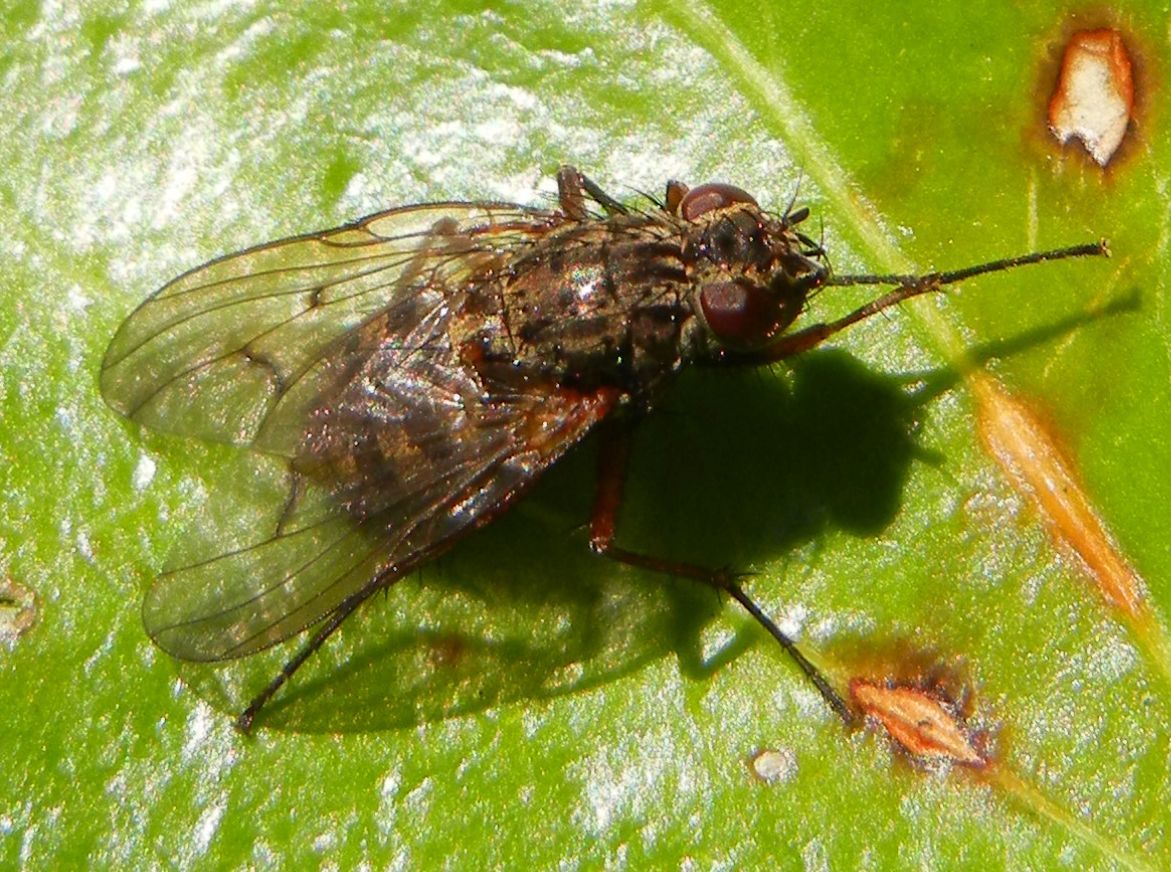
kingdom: Animalia
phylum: Arthropoda
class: Insecta
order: Diptera
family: Muscidae
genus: Phaonia
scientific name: Phaonia tuguriorum
